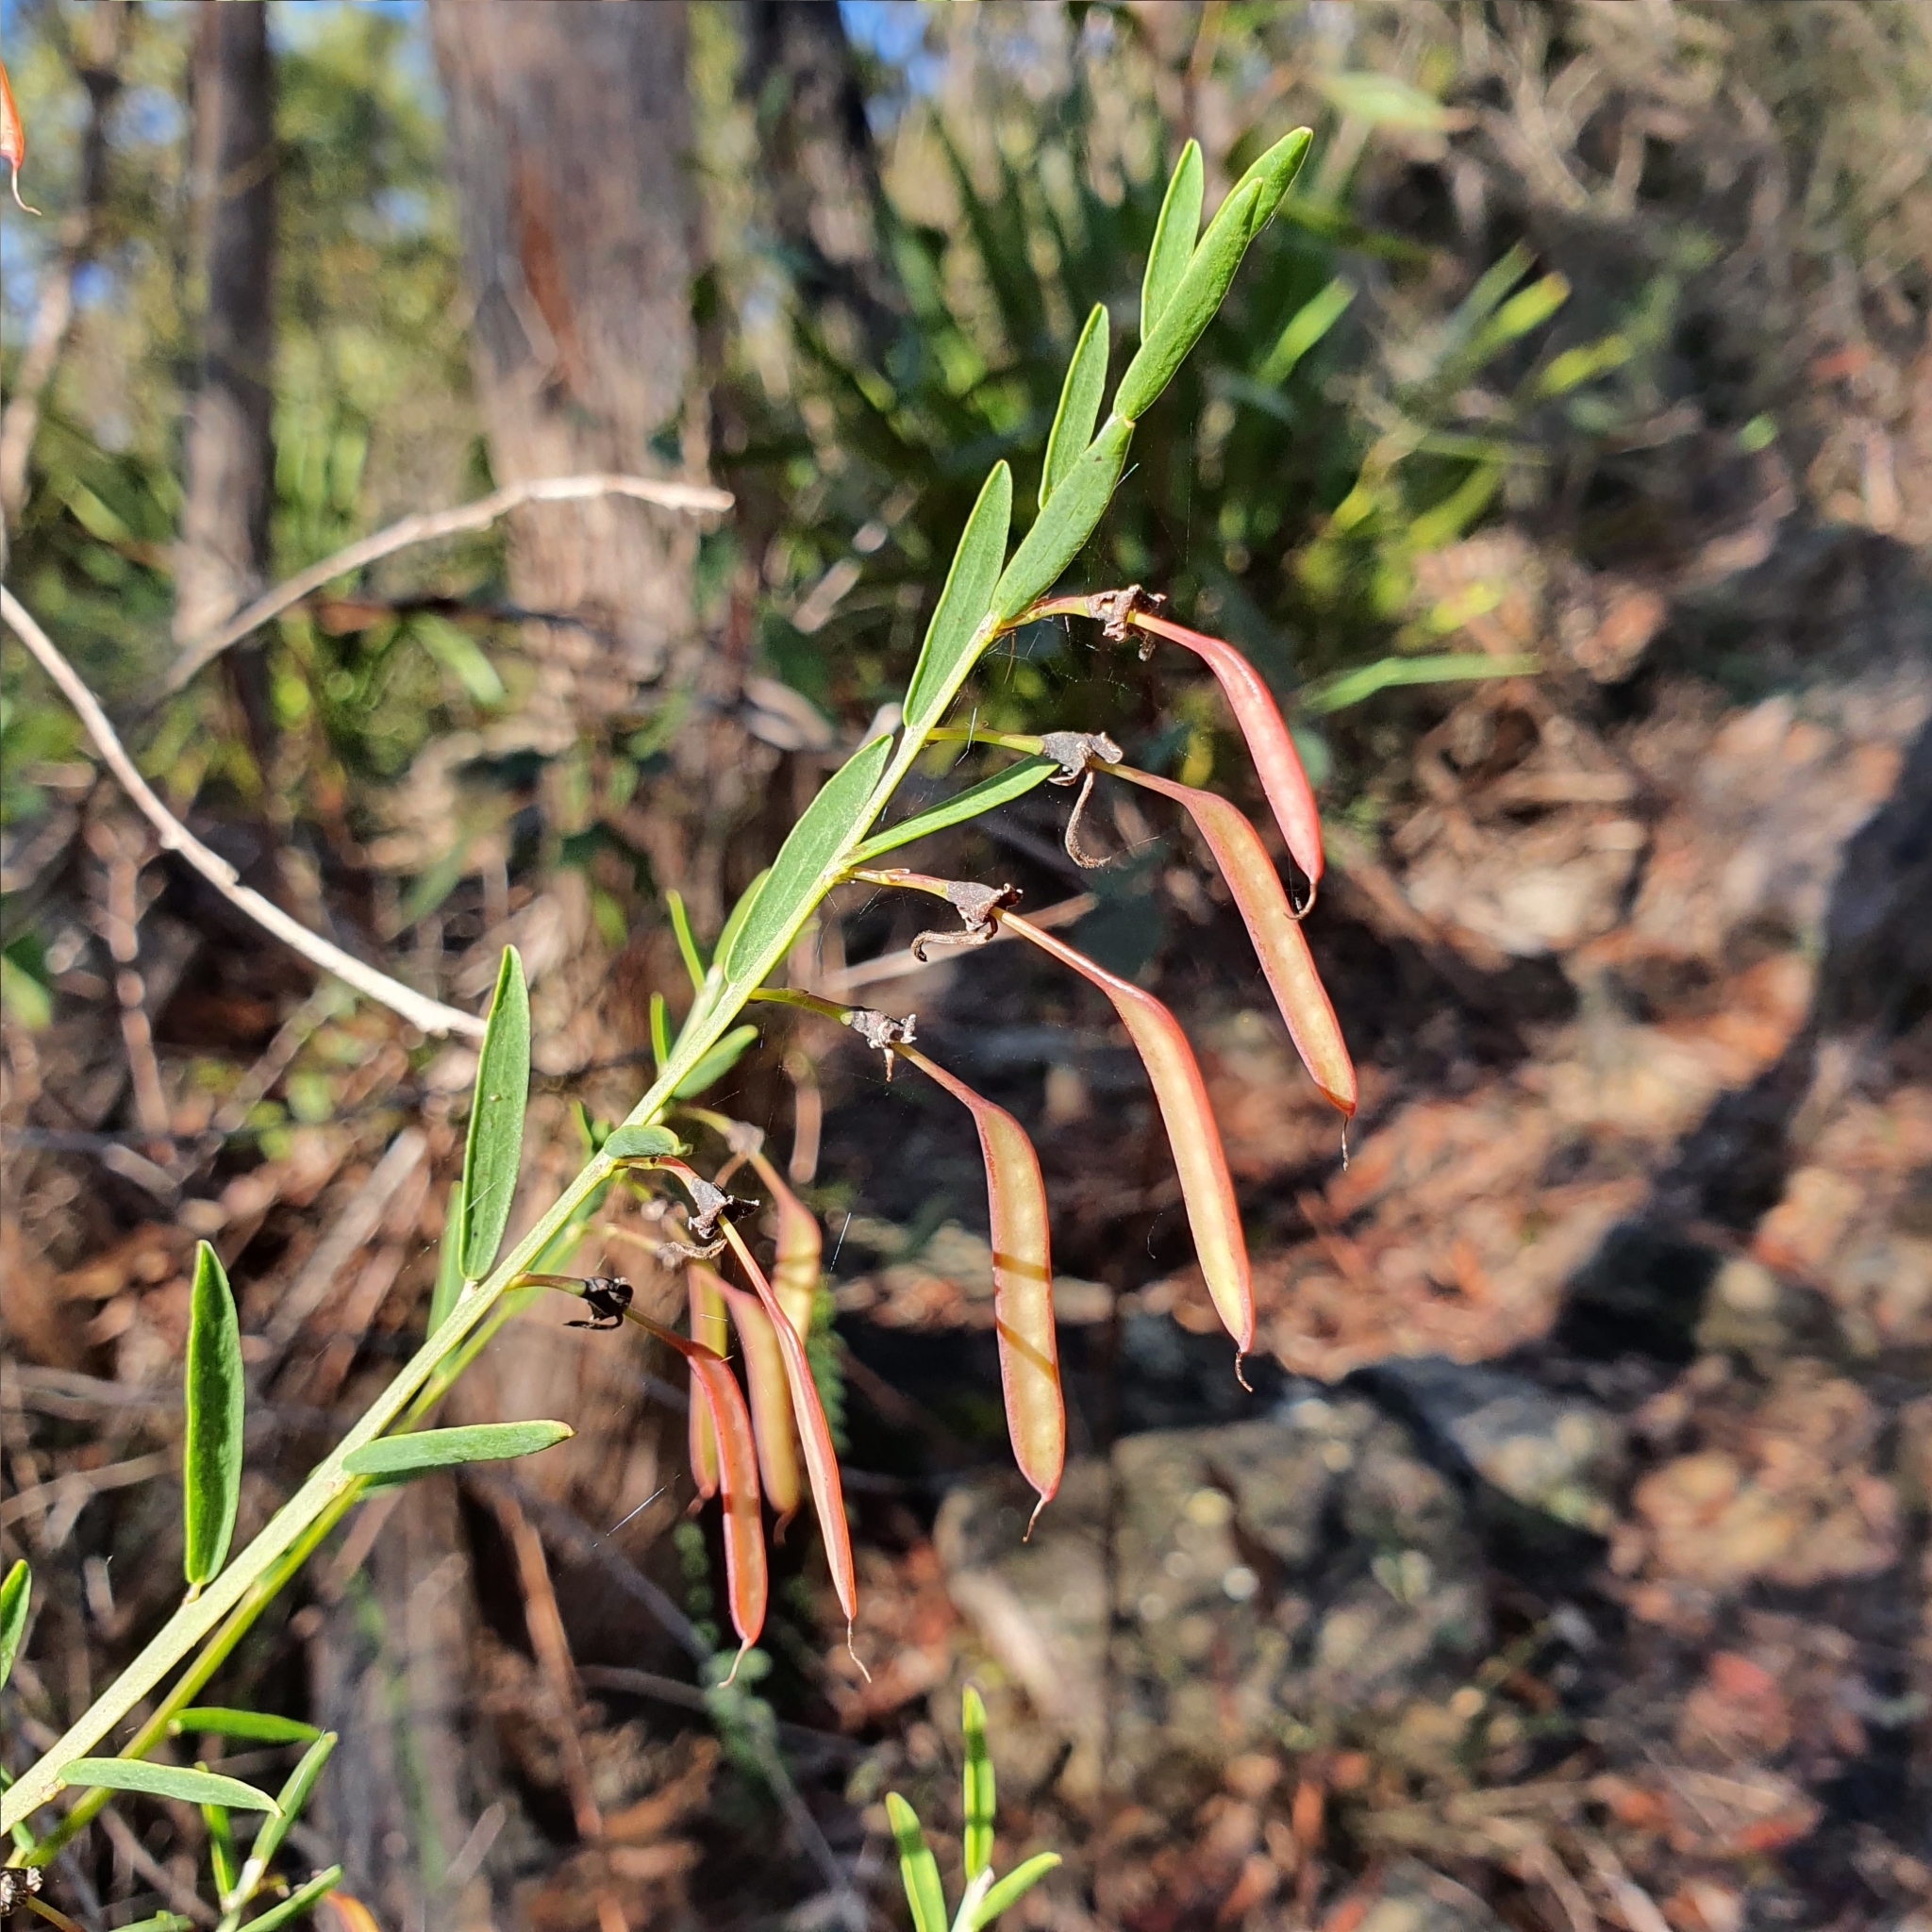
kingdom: Plantae
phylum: Tracheophyta
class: Magnoliopsida
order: Fabales
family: Fabaceae
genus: Bossiaea
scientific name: Bossiaea heterophylla
